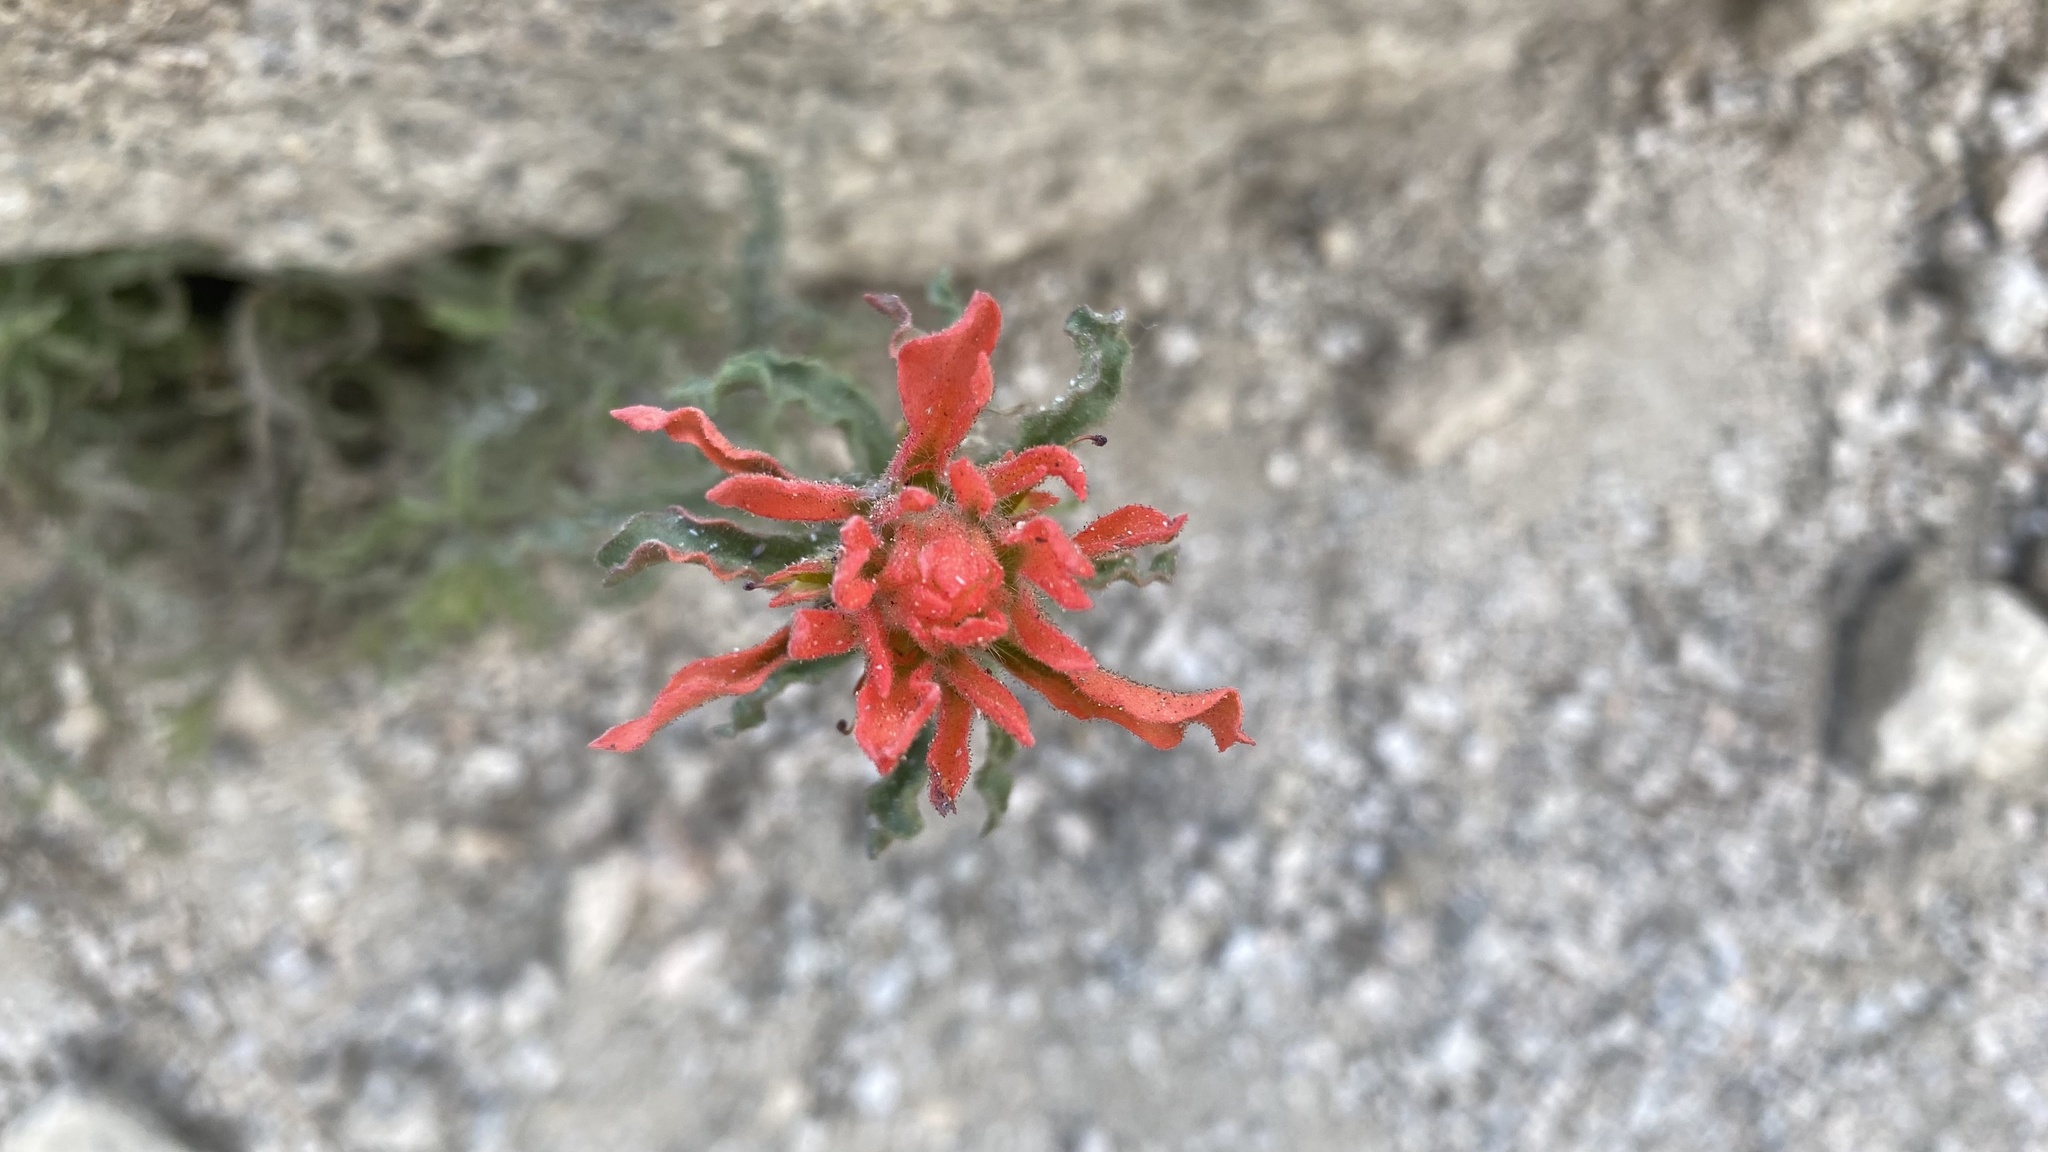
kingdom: Plantae
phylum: Tracheophyta
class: Magnoliopsida
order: Lamiales
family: Orobanchaceae
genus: Castilleja
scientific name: Castilleja applegatei
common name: Wavy-leaf paintbrush
